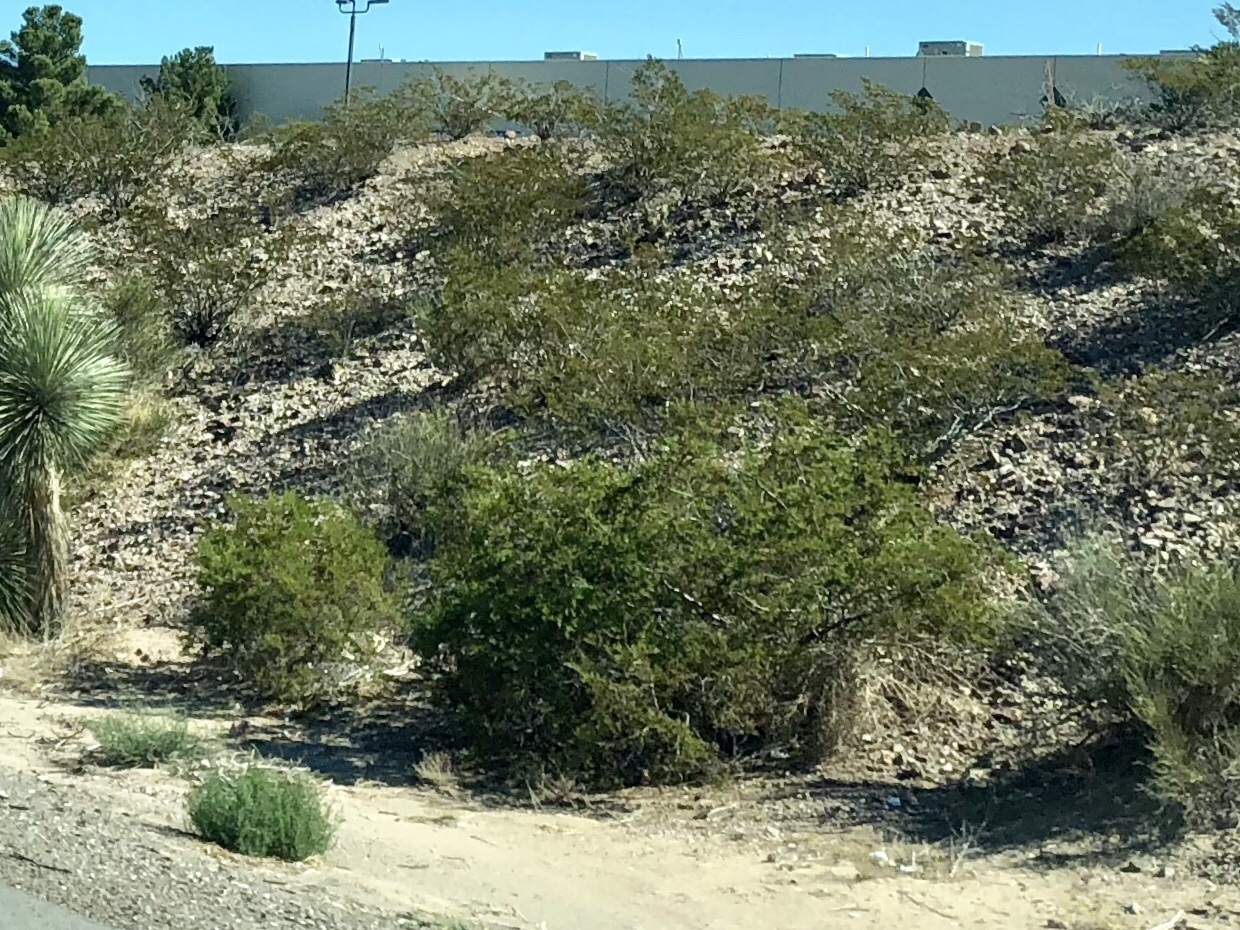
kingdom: Plantae
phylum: Tracheophyta
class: Magnoliopsida
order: Zygophyllales
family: Zygophyllaceae
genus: Larrea
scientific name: Larrea tridentata
